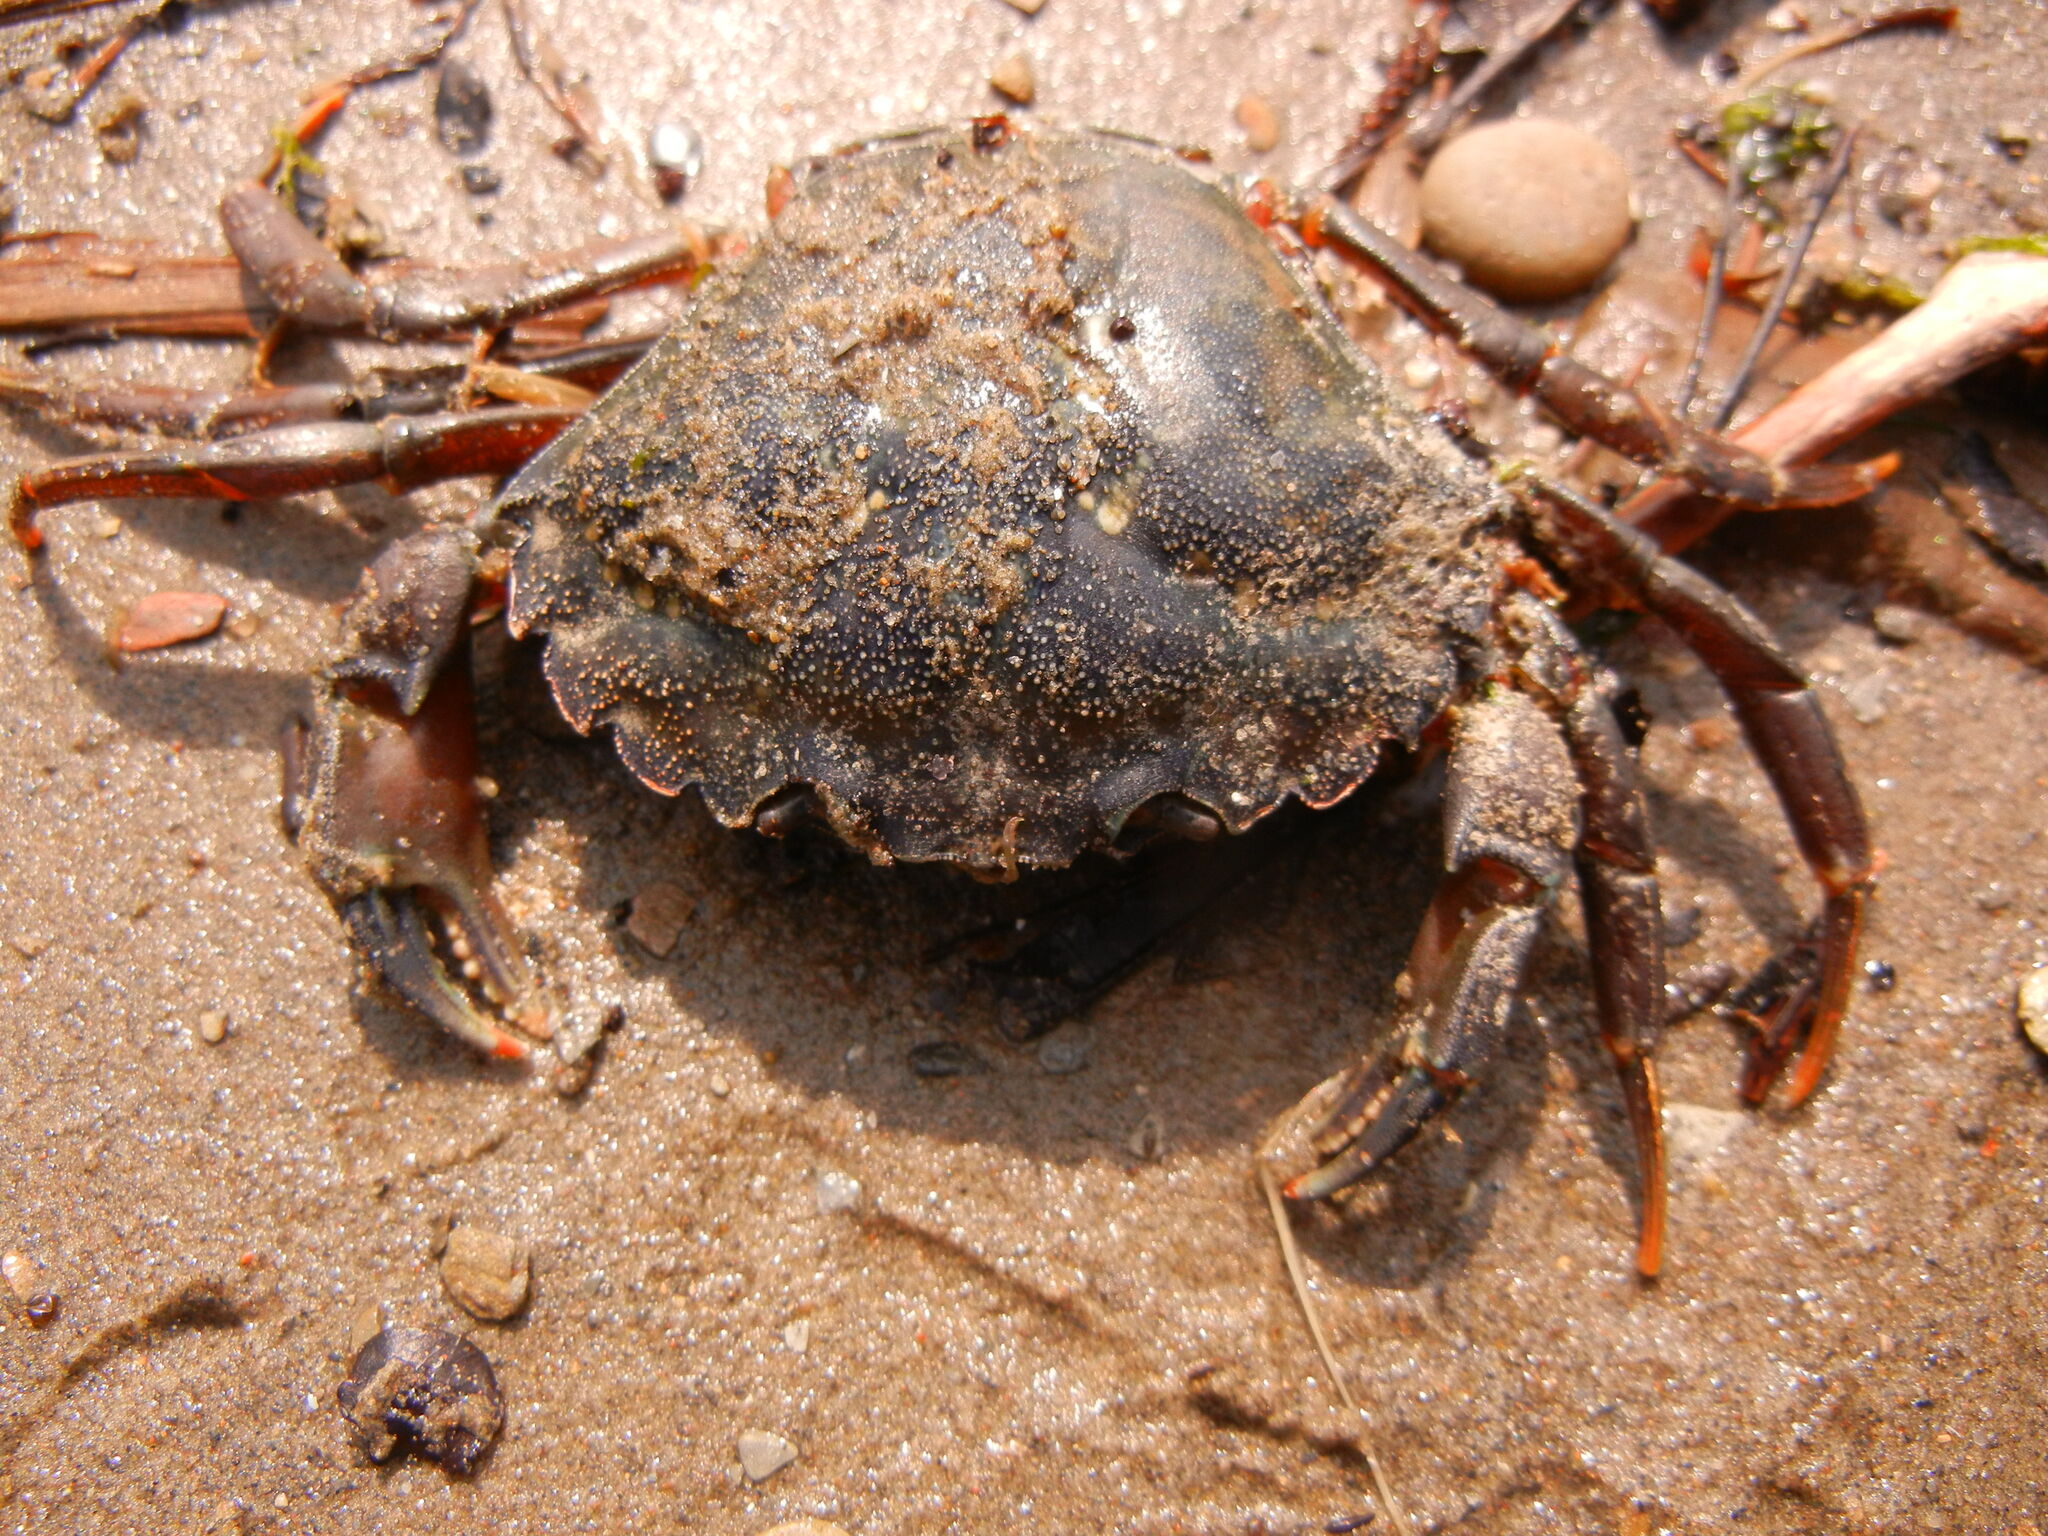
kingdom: Animalia
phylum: Arthropoda
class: Malacostraca
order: Decapoda
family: Carcinidae
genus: Carcinus
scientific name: Carcinus maenas
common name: European green crab
